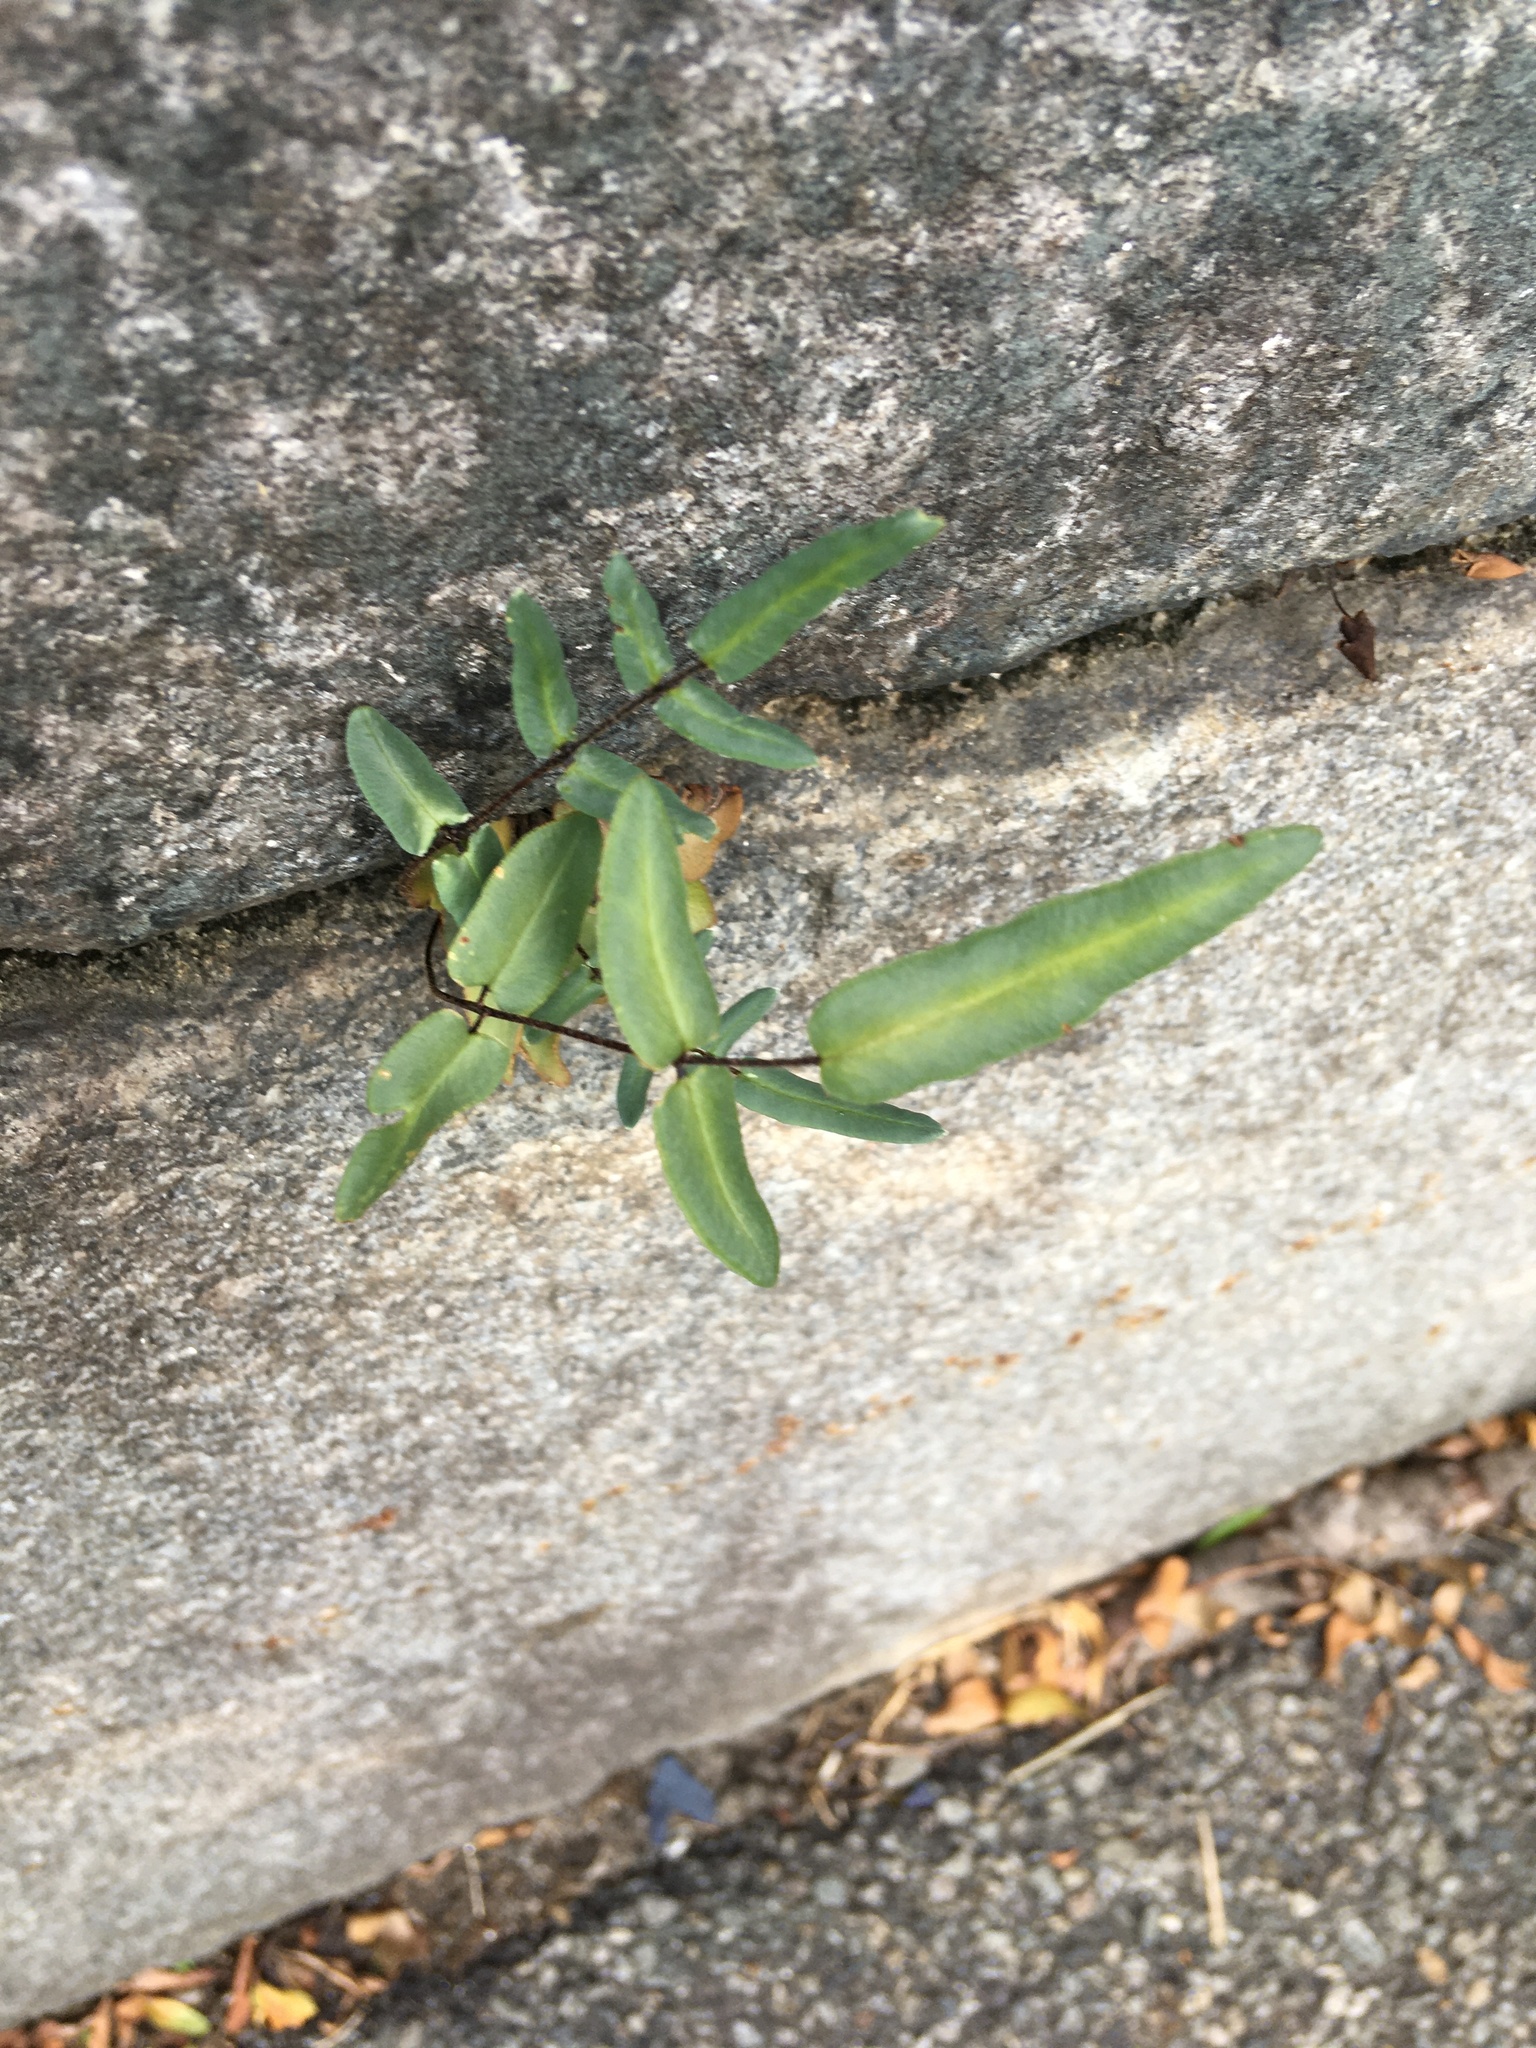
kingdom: Plantae
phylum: Tracheophyta
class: Polypodiopsida
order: Polypodiales
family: Pteridaceae
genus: Pellaea
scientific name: Pellaea atropurpurea
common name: Hairy cliffbrake
